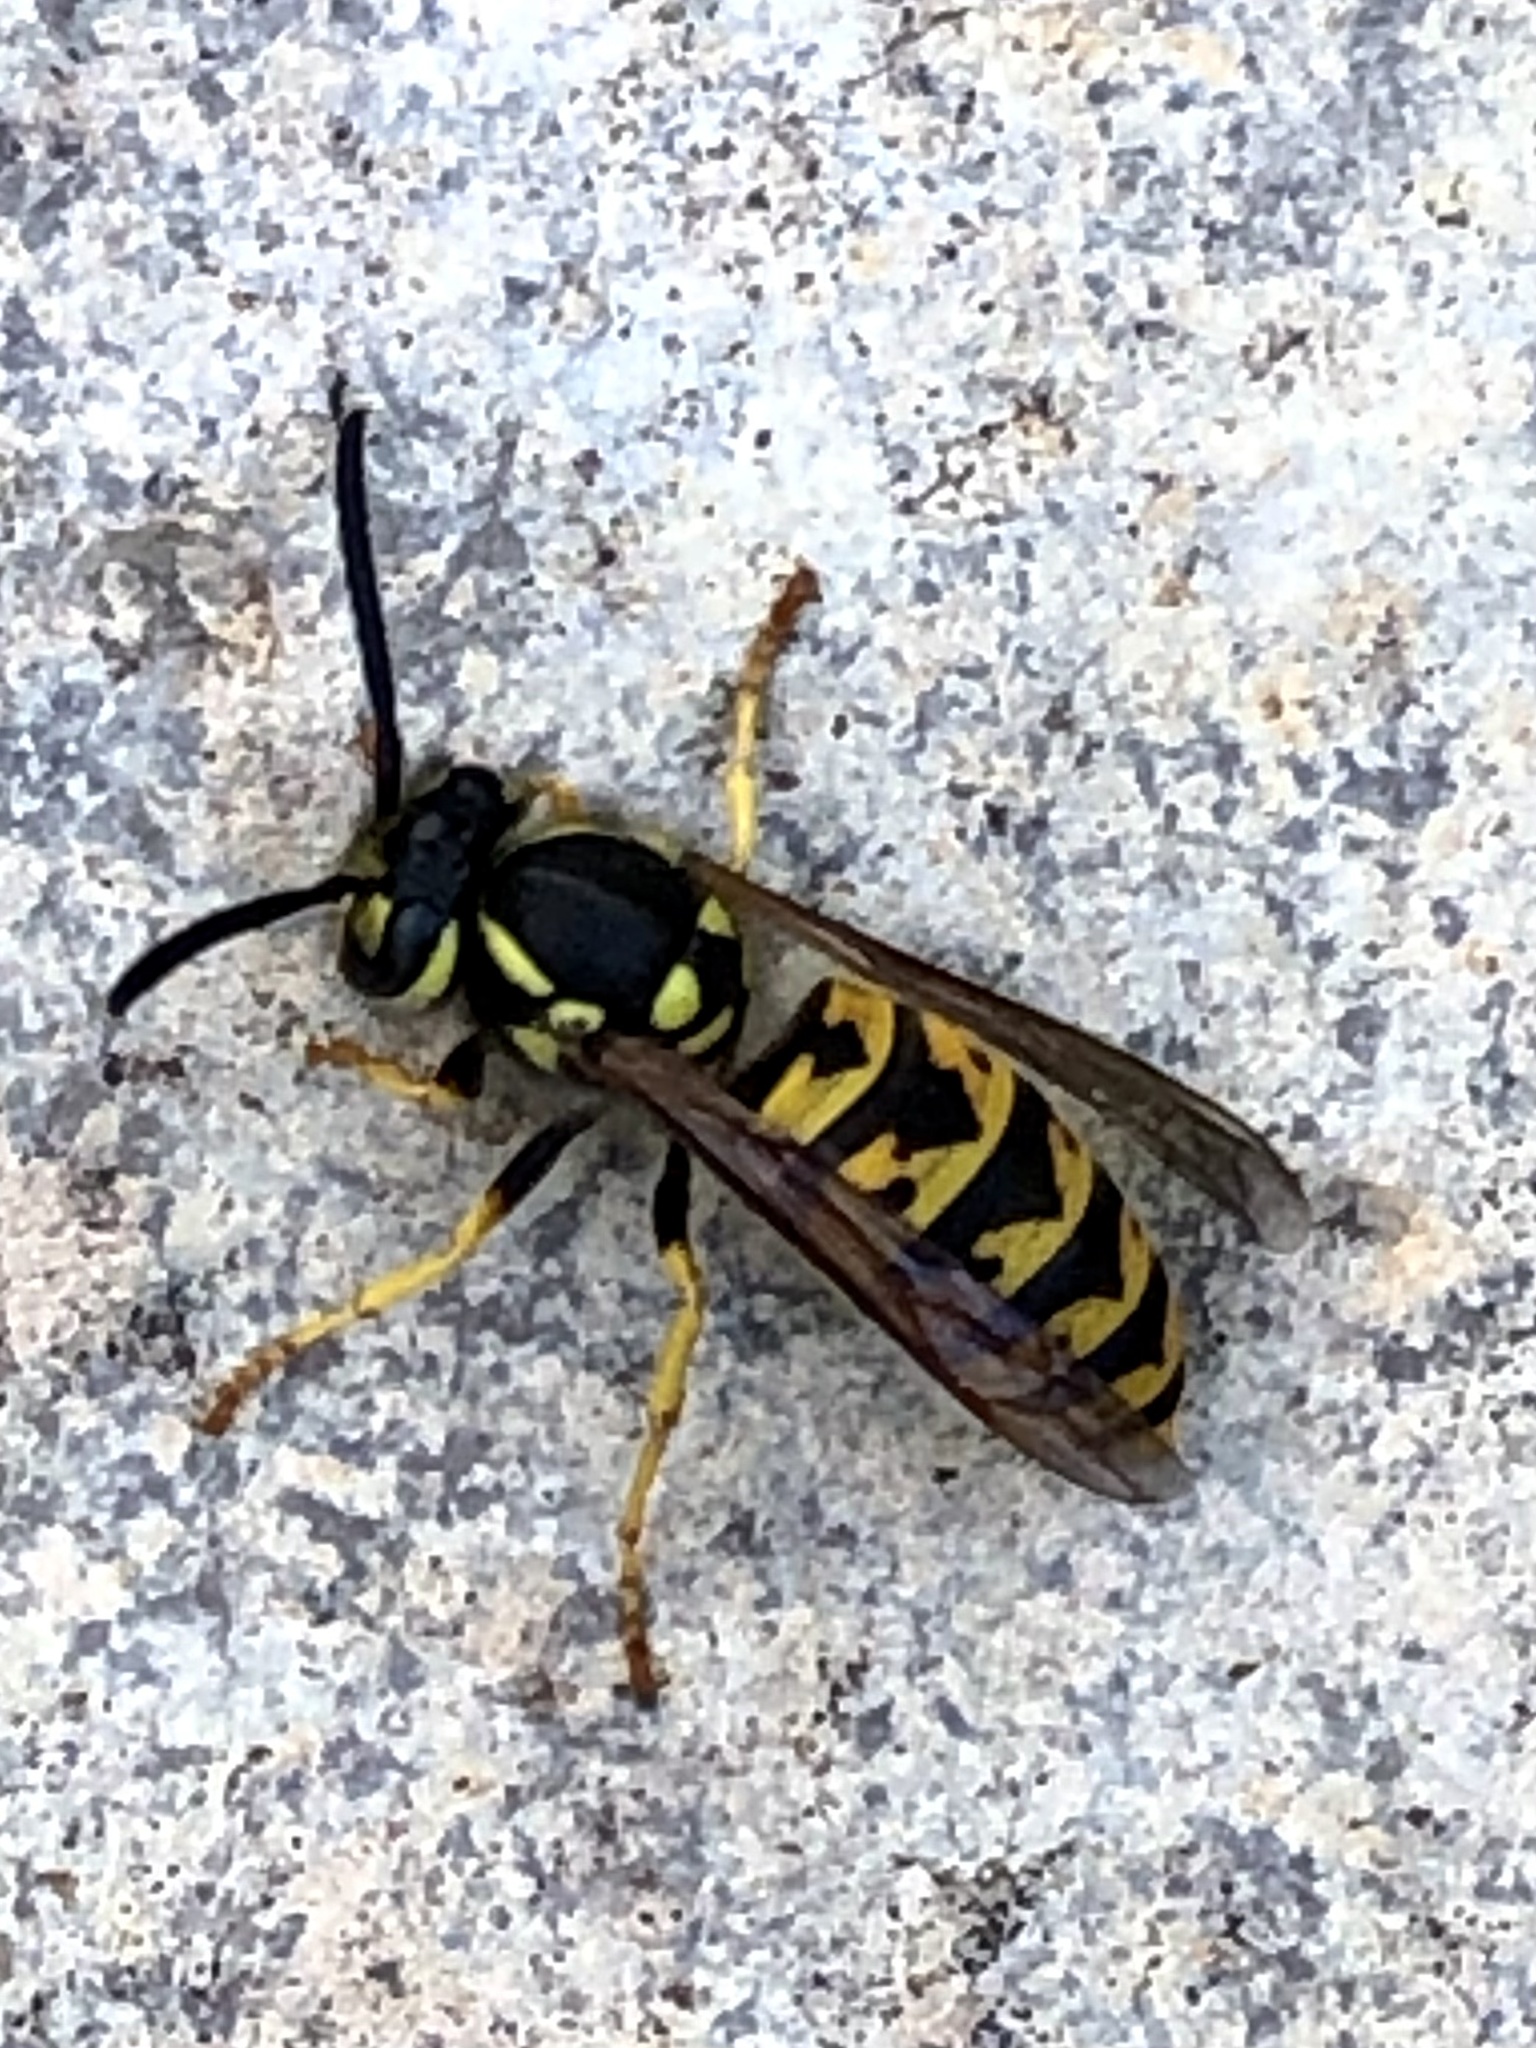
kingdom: Animalia
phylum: Arthropoda
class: Insecta
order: Hymenoptera
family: Vespidae
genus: Vespula
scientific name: Vespula germanica
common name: German wasp
